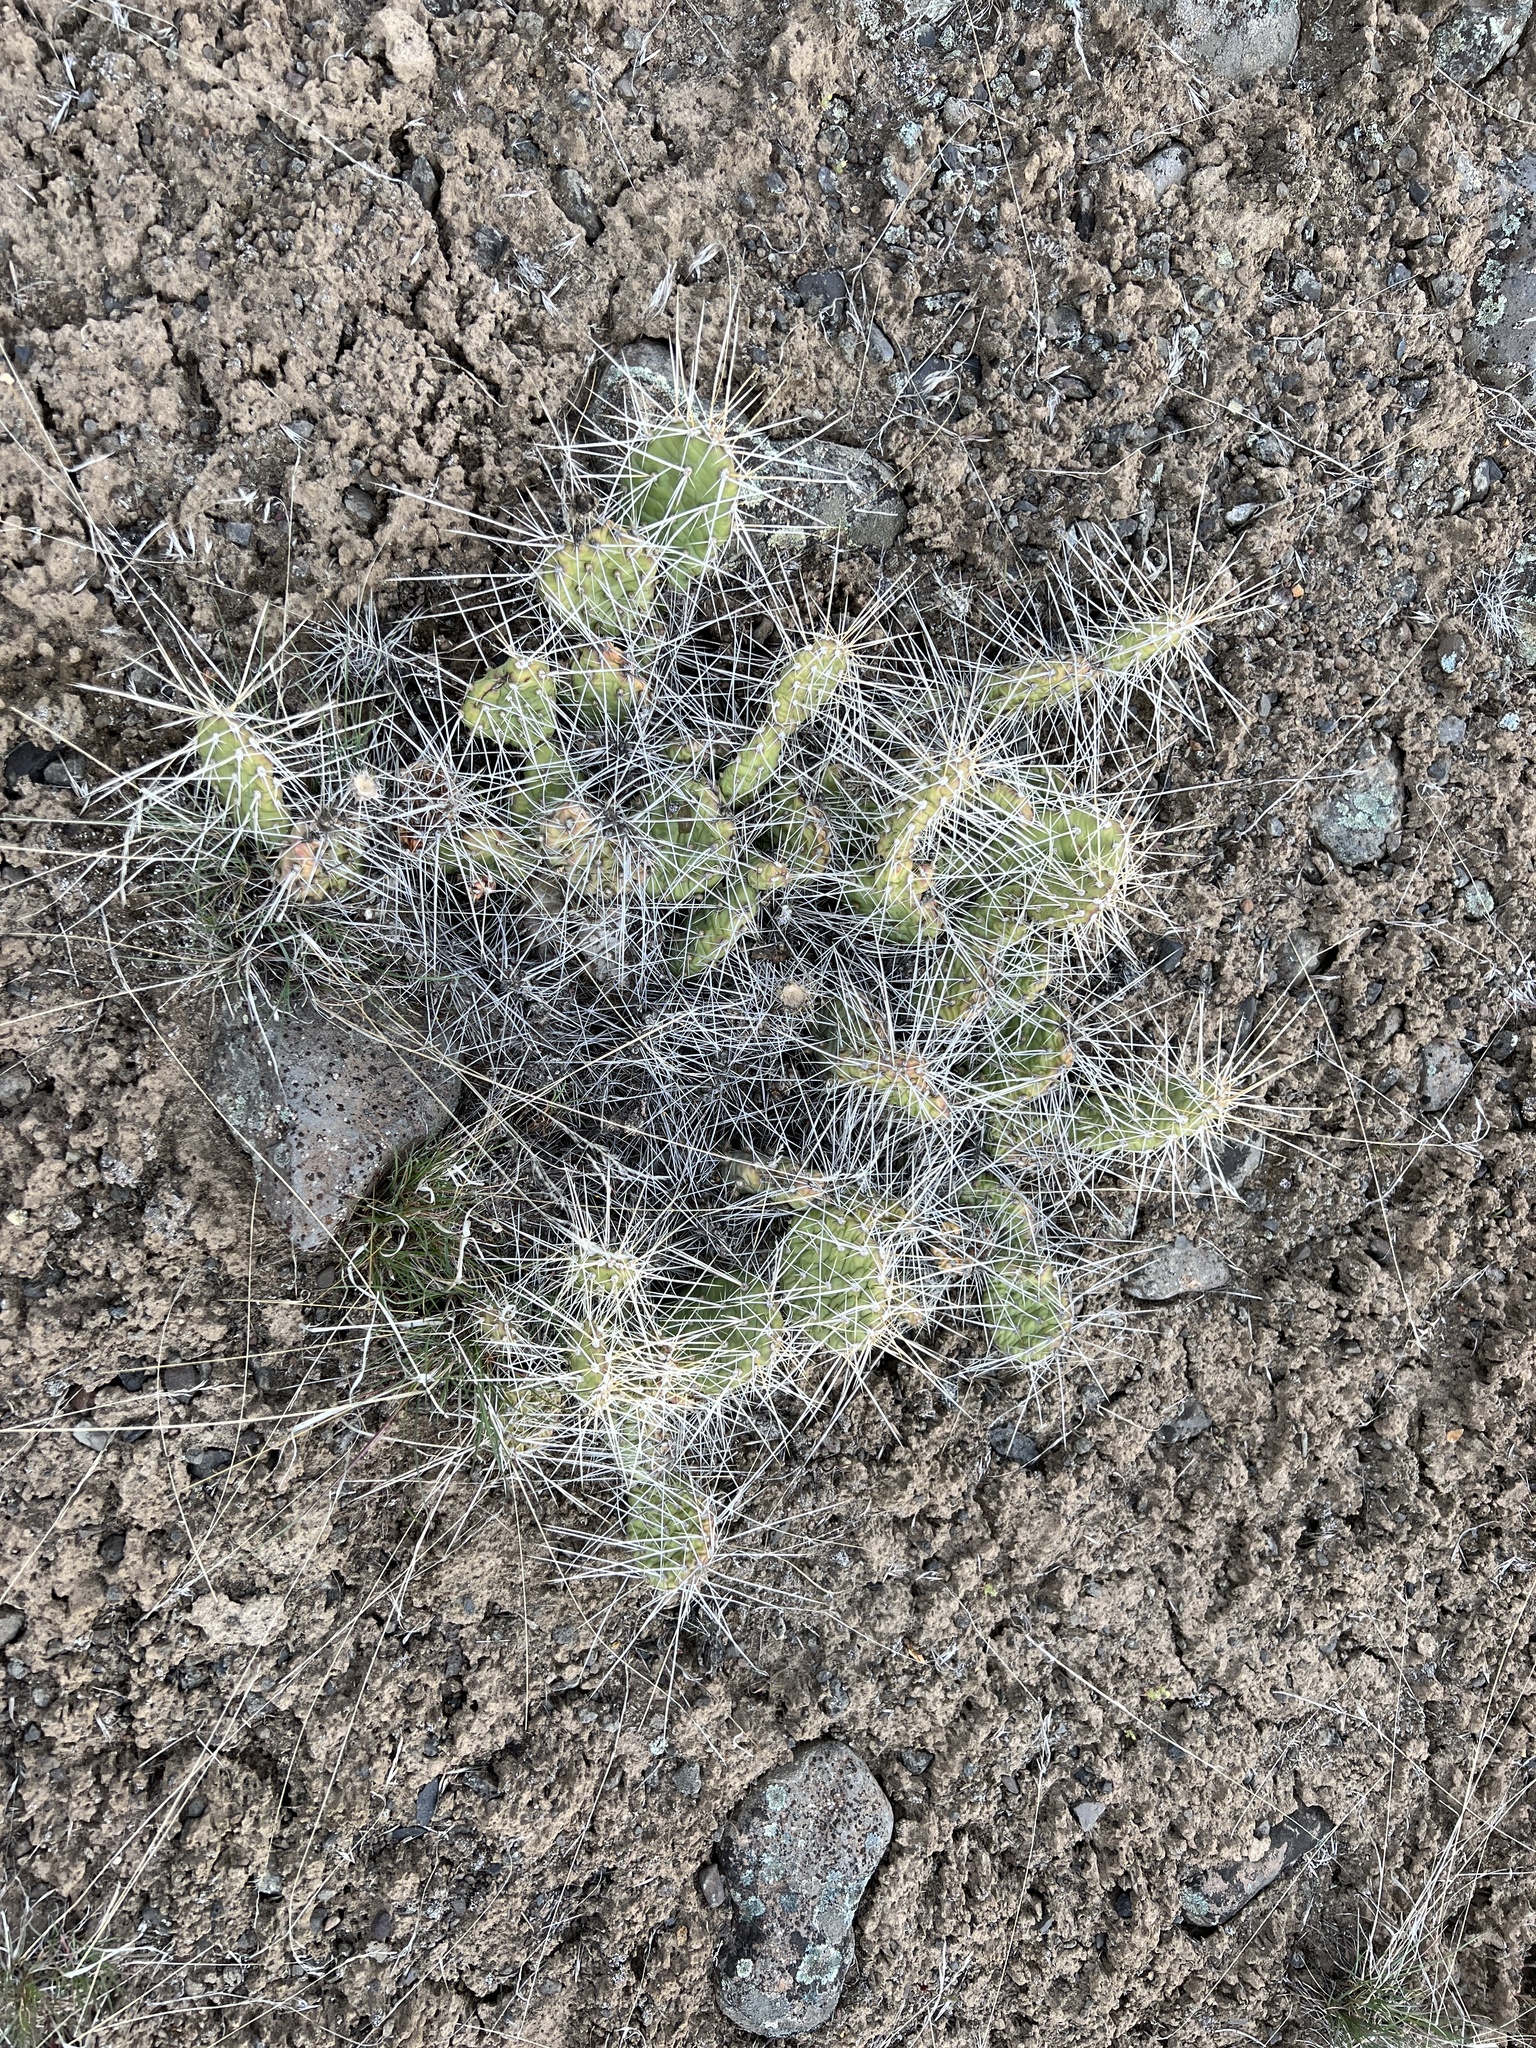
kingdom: Plantae
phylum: Tracheophyta
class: Magnoliopsida
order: Caryophyllales
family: Cactaceae
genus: Opuntia
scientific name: Opuntia columbiana
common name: Columbia prickly-pear
